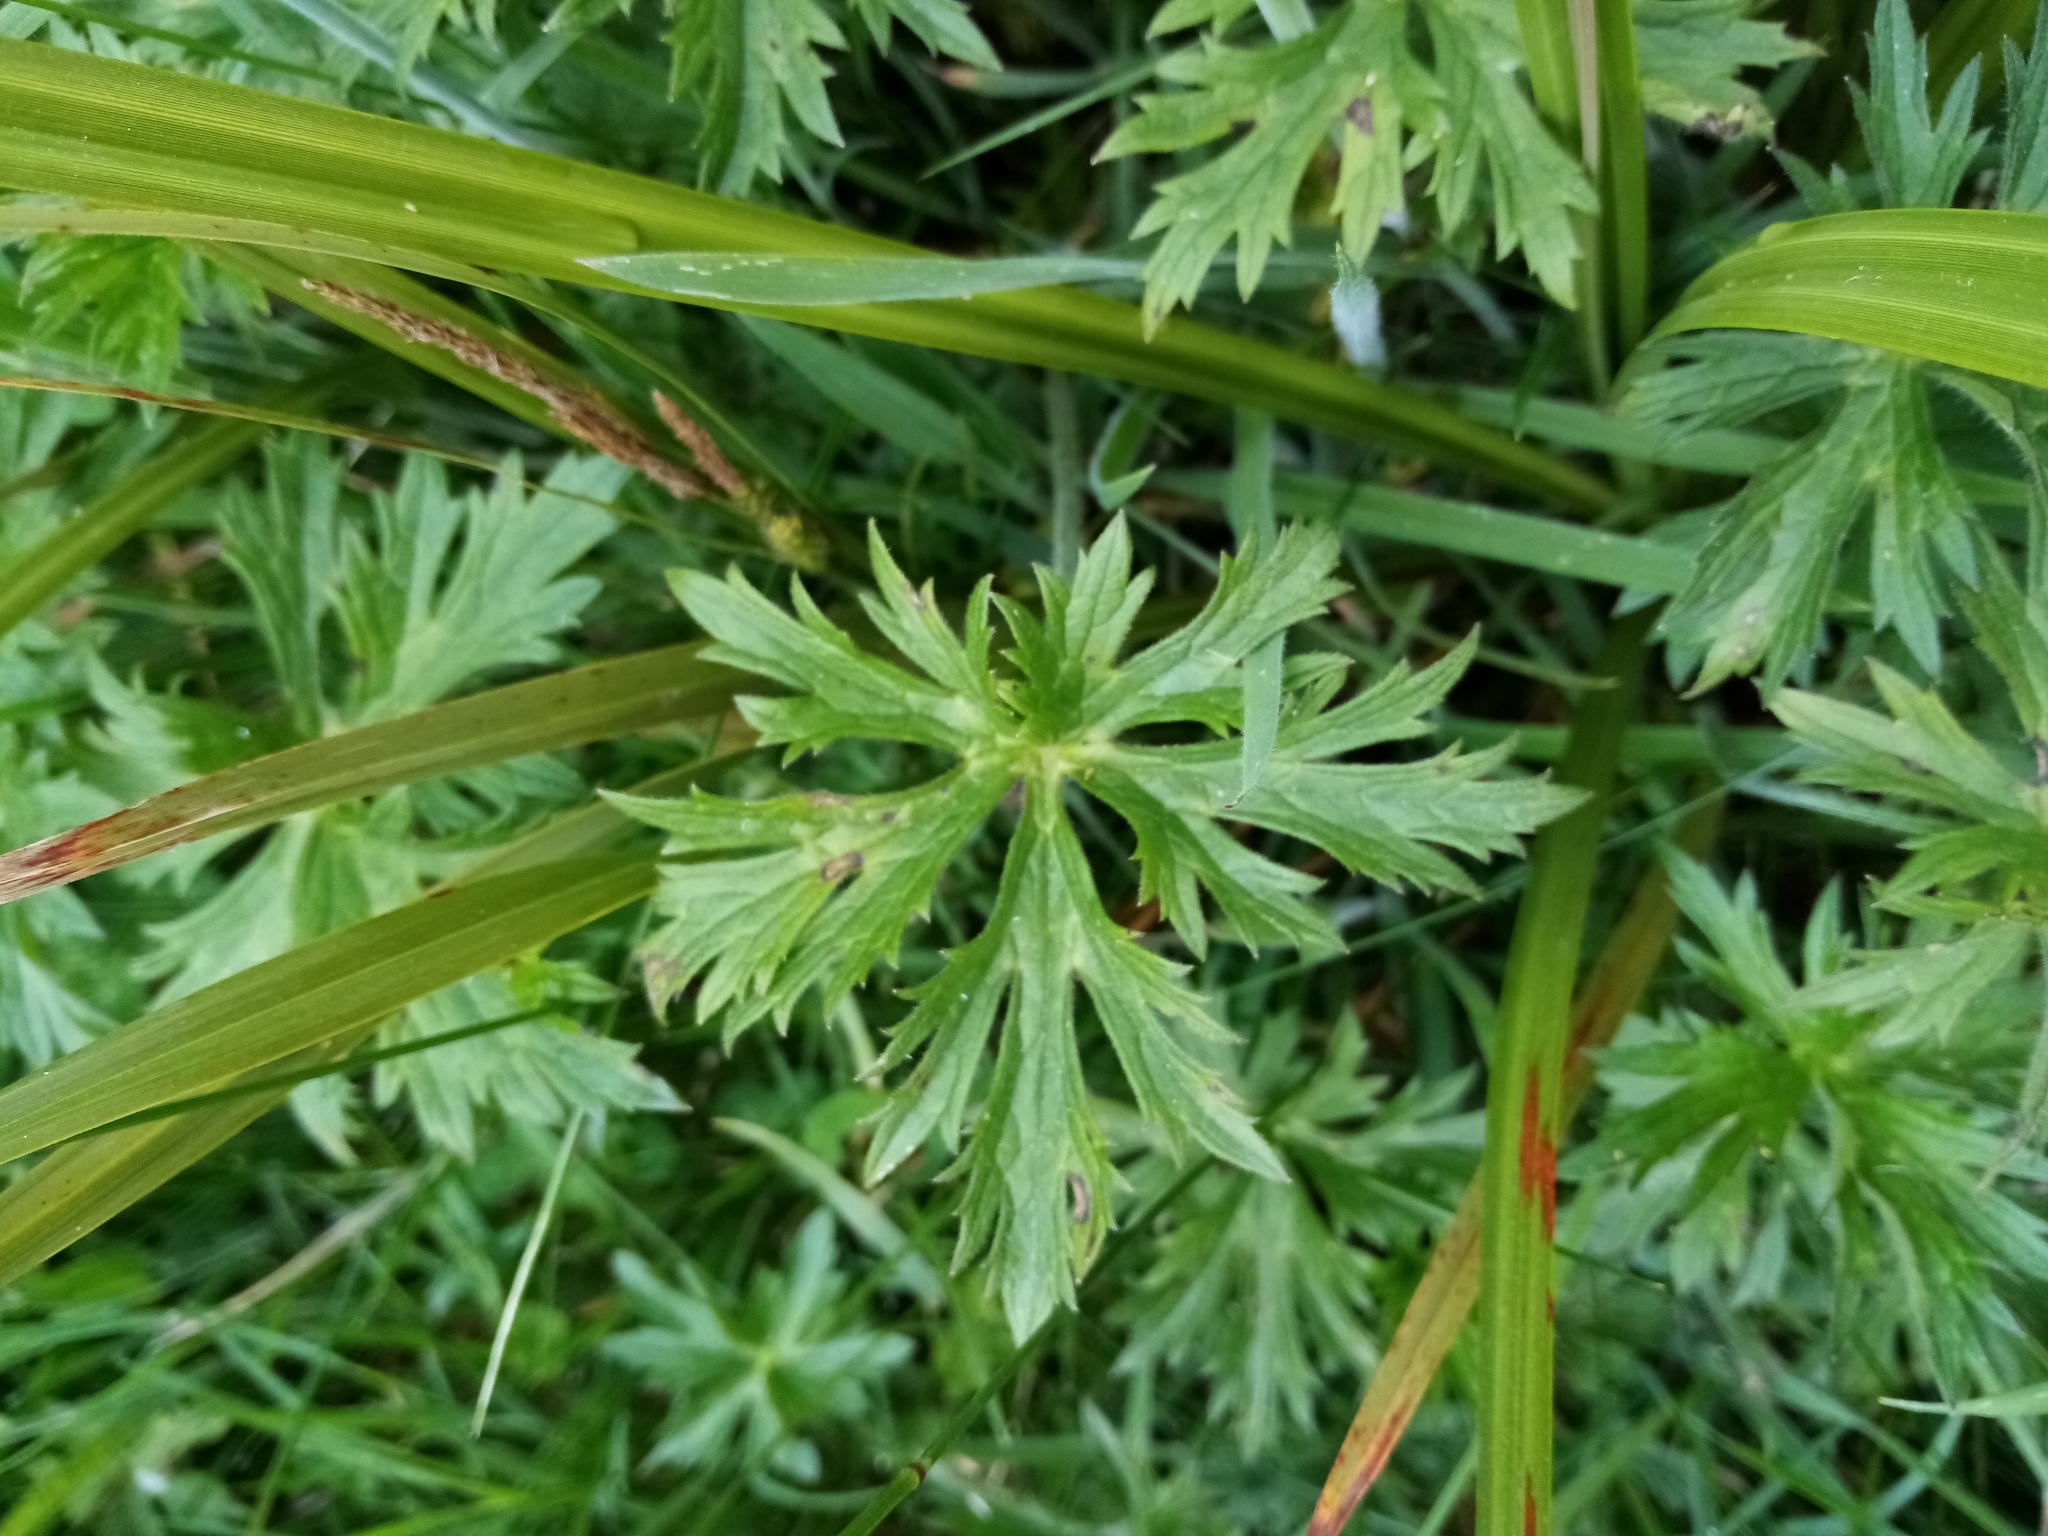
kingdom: Plantae
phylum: Tracheophyta
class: Magnoliopsida
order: Ranunculales
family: Ranunculaceae
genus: Ranunculus
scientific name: Ranunculus acris
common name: Meadow buttercup
